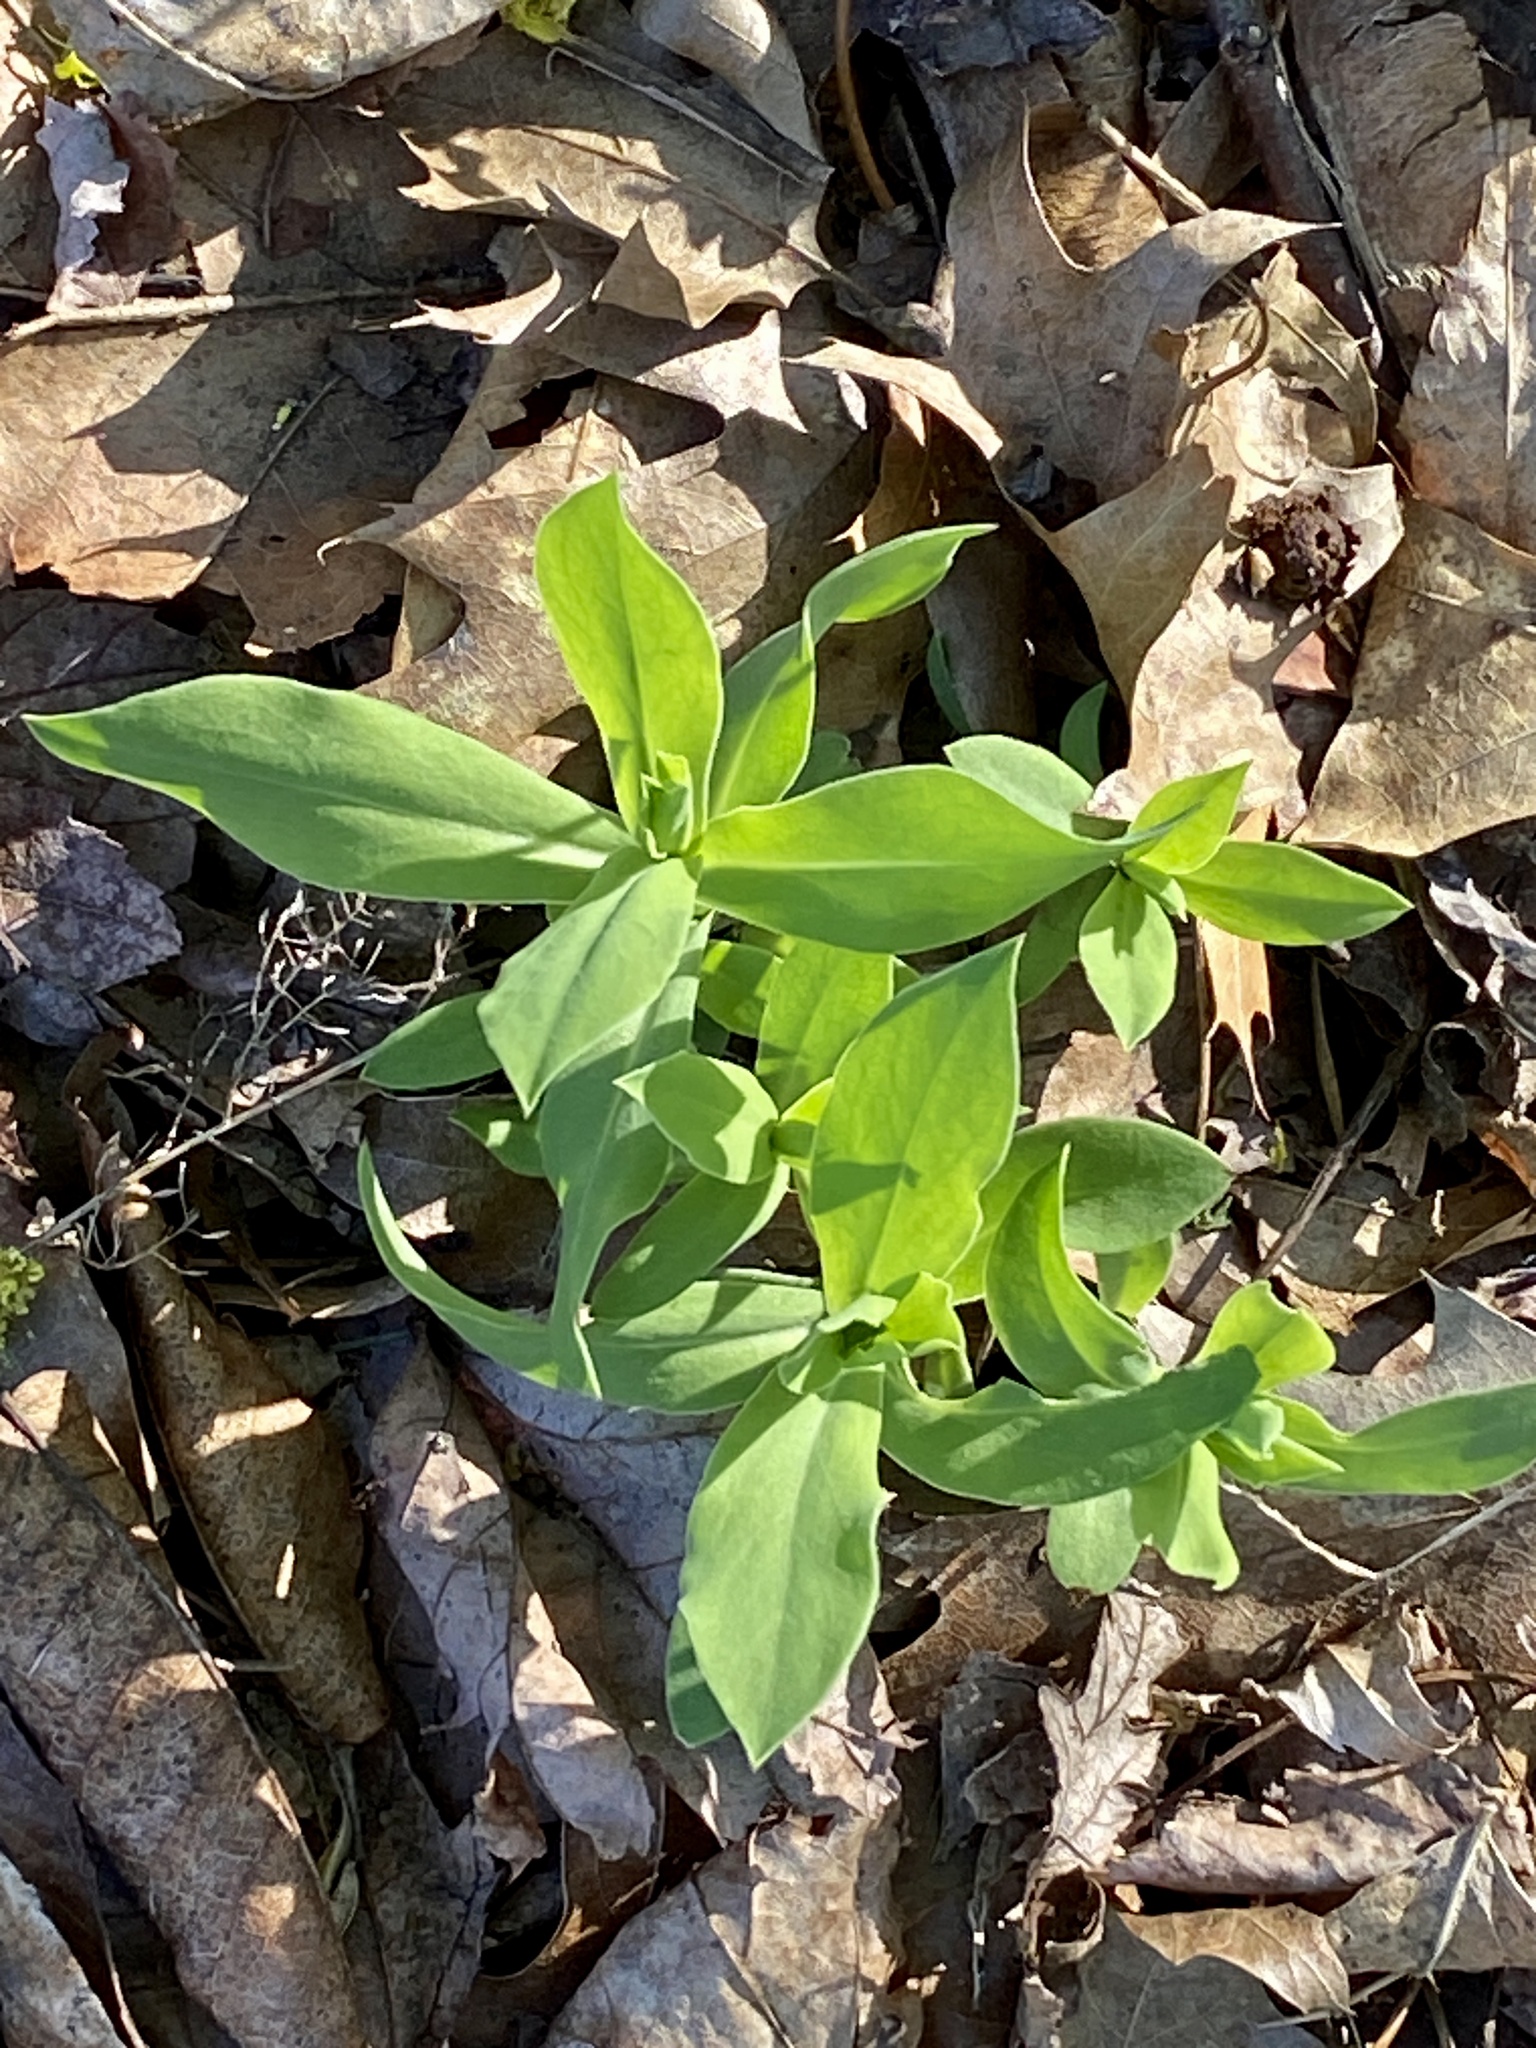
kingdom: Plantae
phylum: Tracheophyta
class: Magnoliopsida
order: Caryophyllales
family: Caryophyllaceae
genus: Silene
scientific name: Silene vulgaris
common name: Bladder campion
